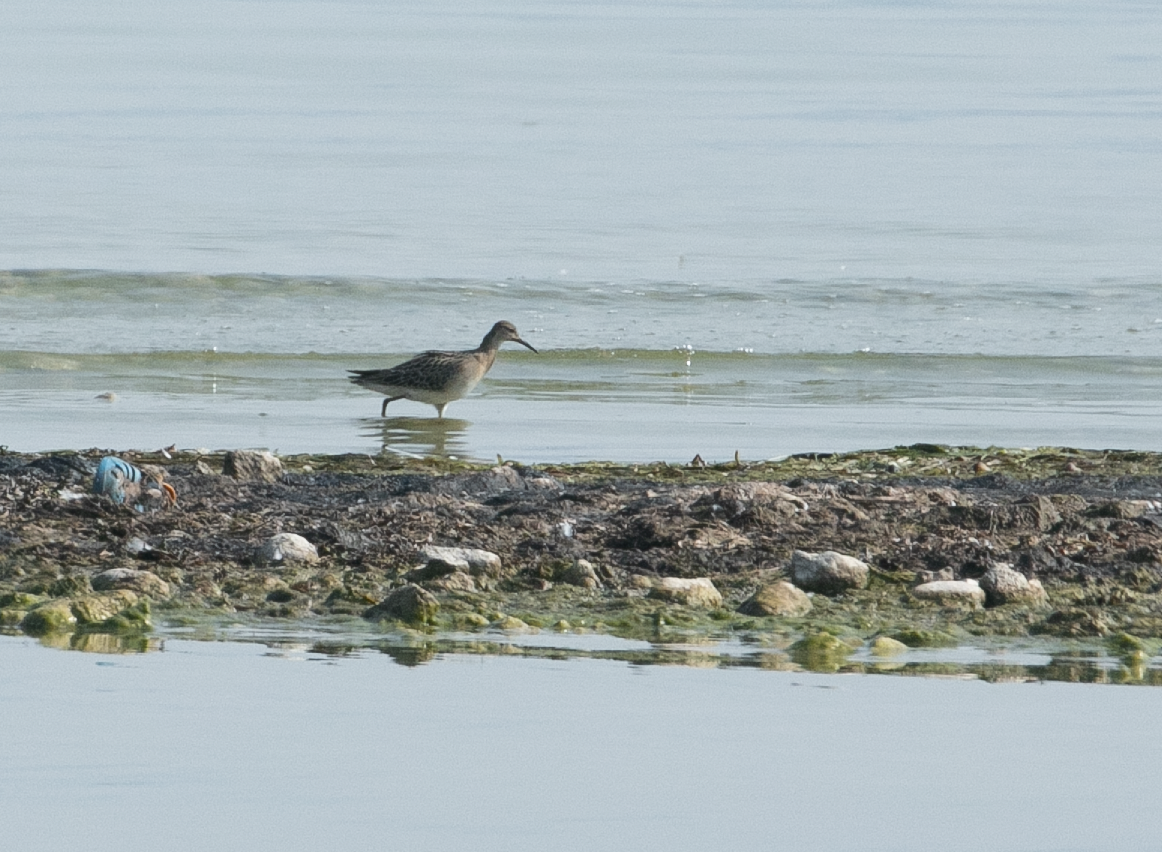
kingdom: Animalia
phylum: Chordata
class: Aves
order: Charadriiformes
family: Scolopacidae
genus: Calidris
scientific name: Calidris pugnax
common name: Ruff
